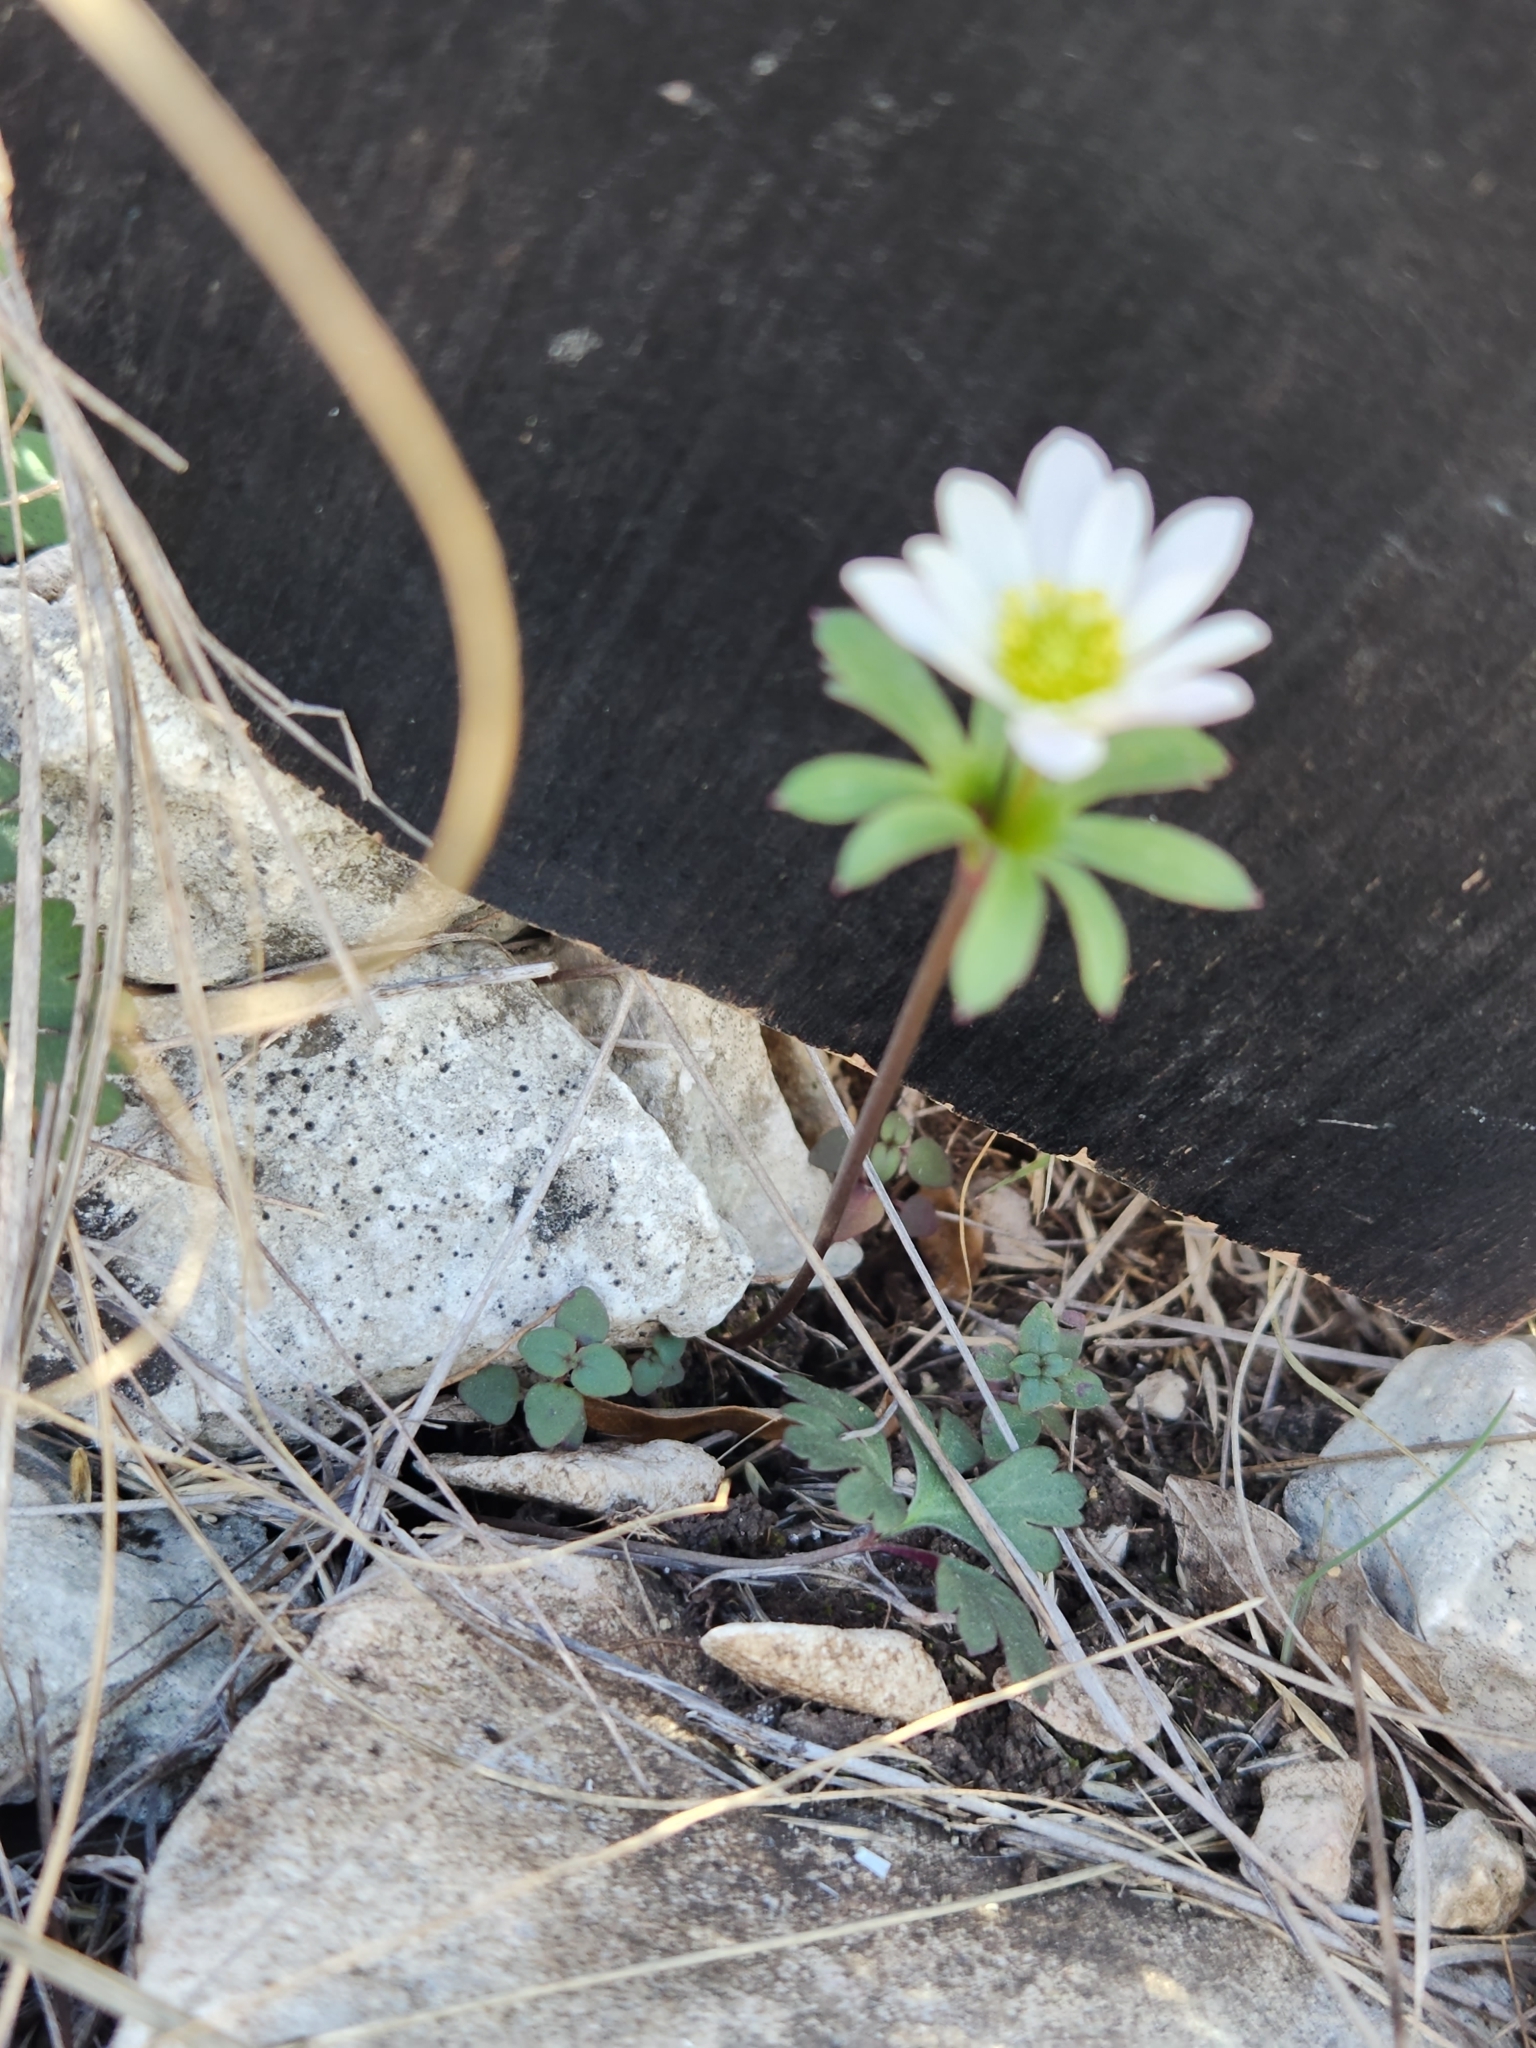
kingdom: Plantae
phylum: Tracheophyta
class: Magnoliopsida
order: Ranunculales
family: Ranunculaceae
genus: Anemone
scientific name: Anemone edwardsiana
